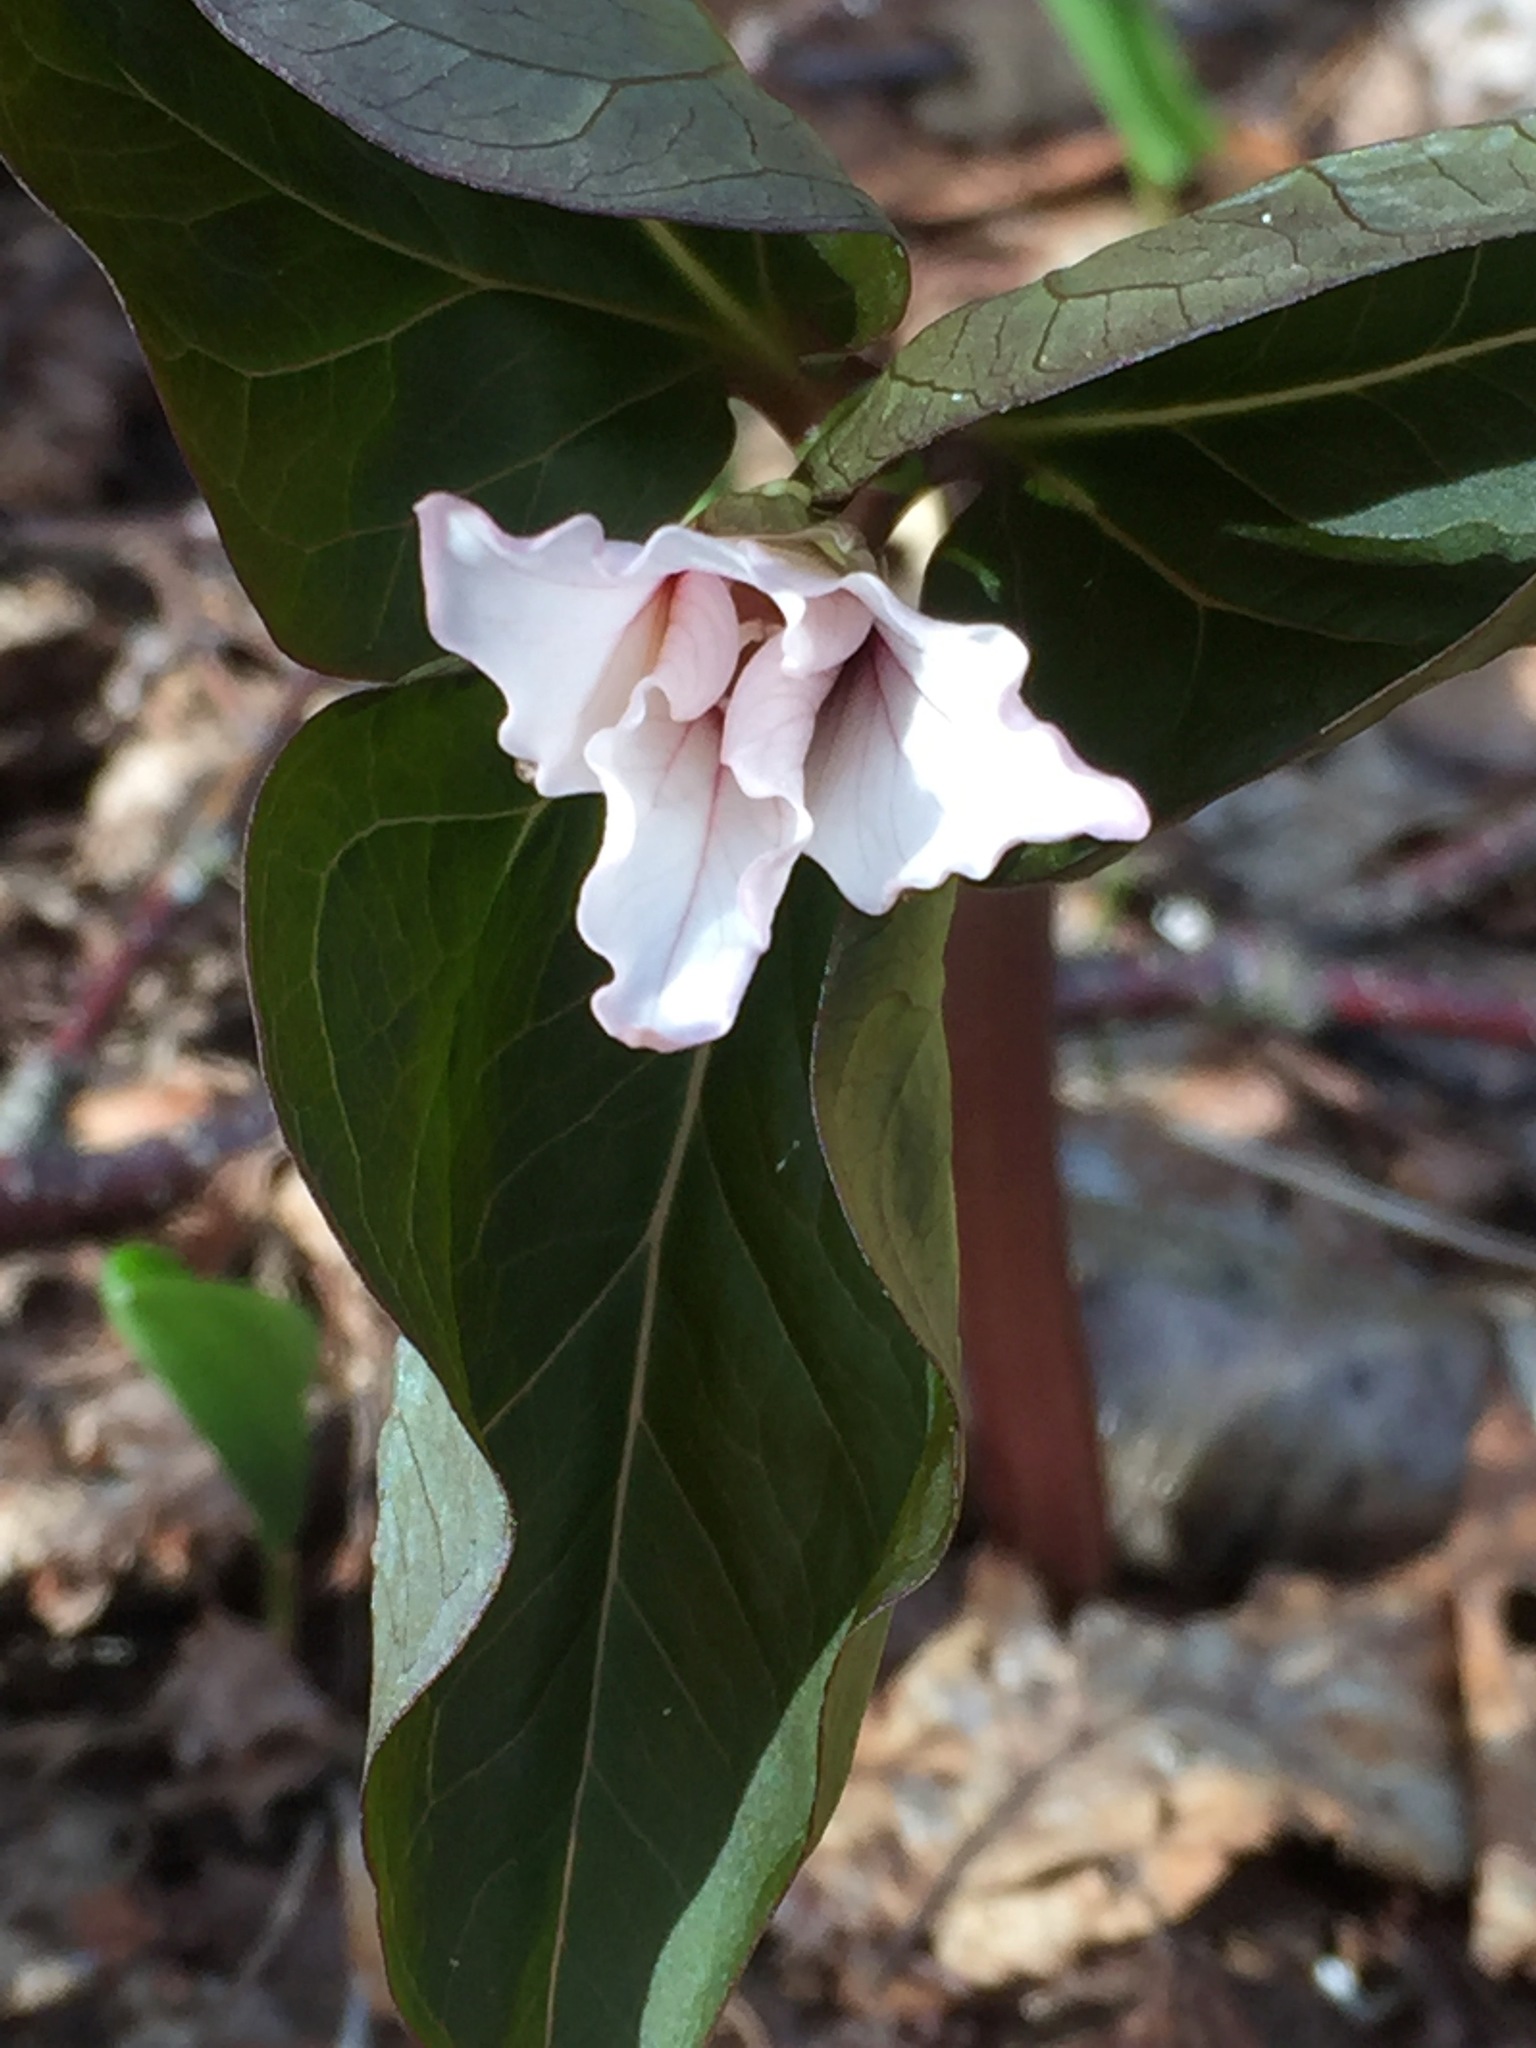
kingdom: Plantae
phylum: Tracheophyta
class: Liliopsida
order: Liliales
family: Melanthiaceae
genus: Trillium
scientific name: Trillium undulatum
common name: Paint trillium
